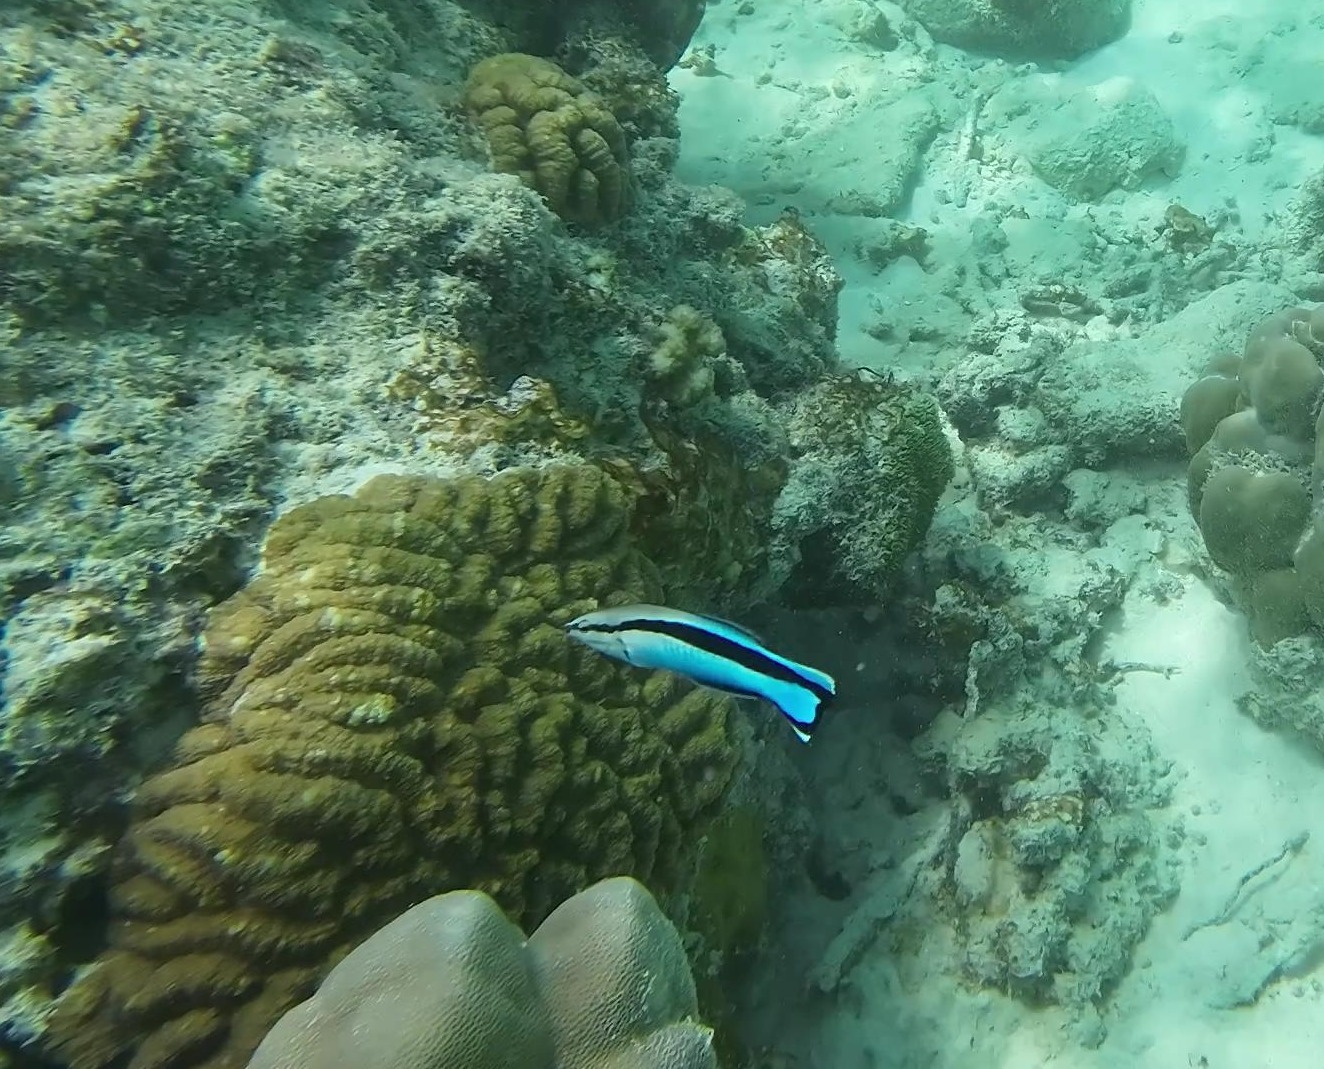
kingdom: Animalia
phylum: Chordata
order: Perciformes
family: Labridae
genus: Labroides
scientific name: Labroides dimidiatus
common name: Blue diesel wrasse
